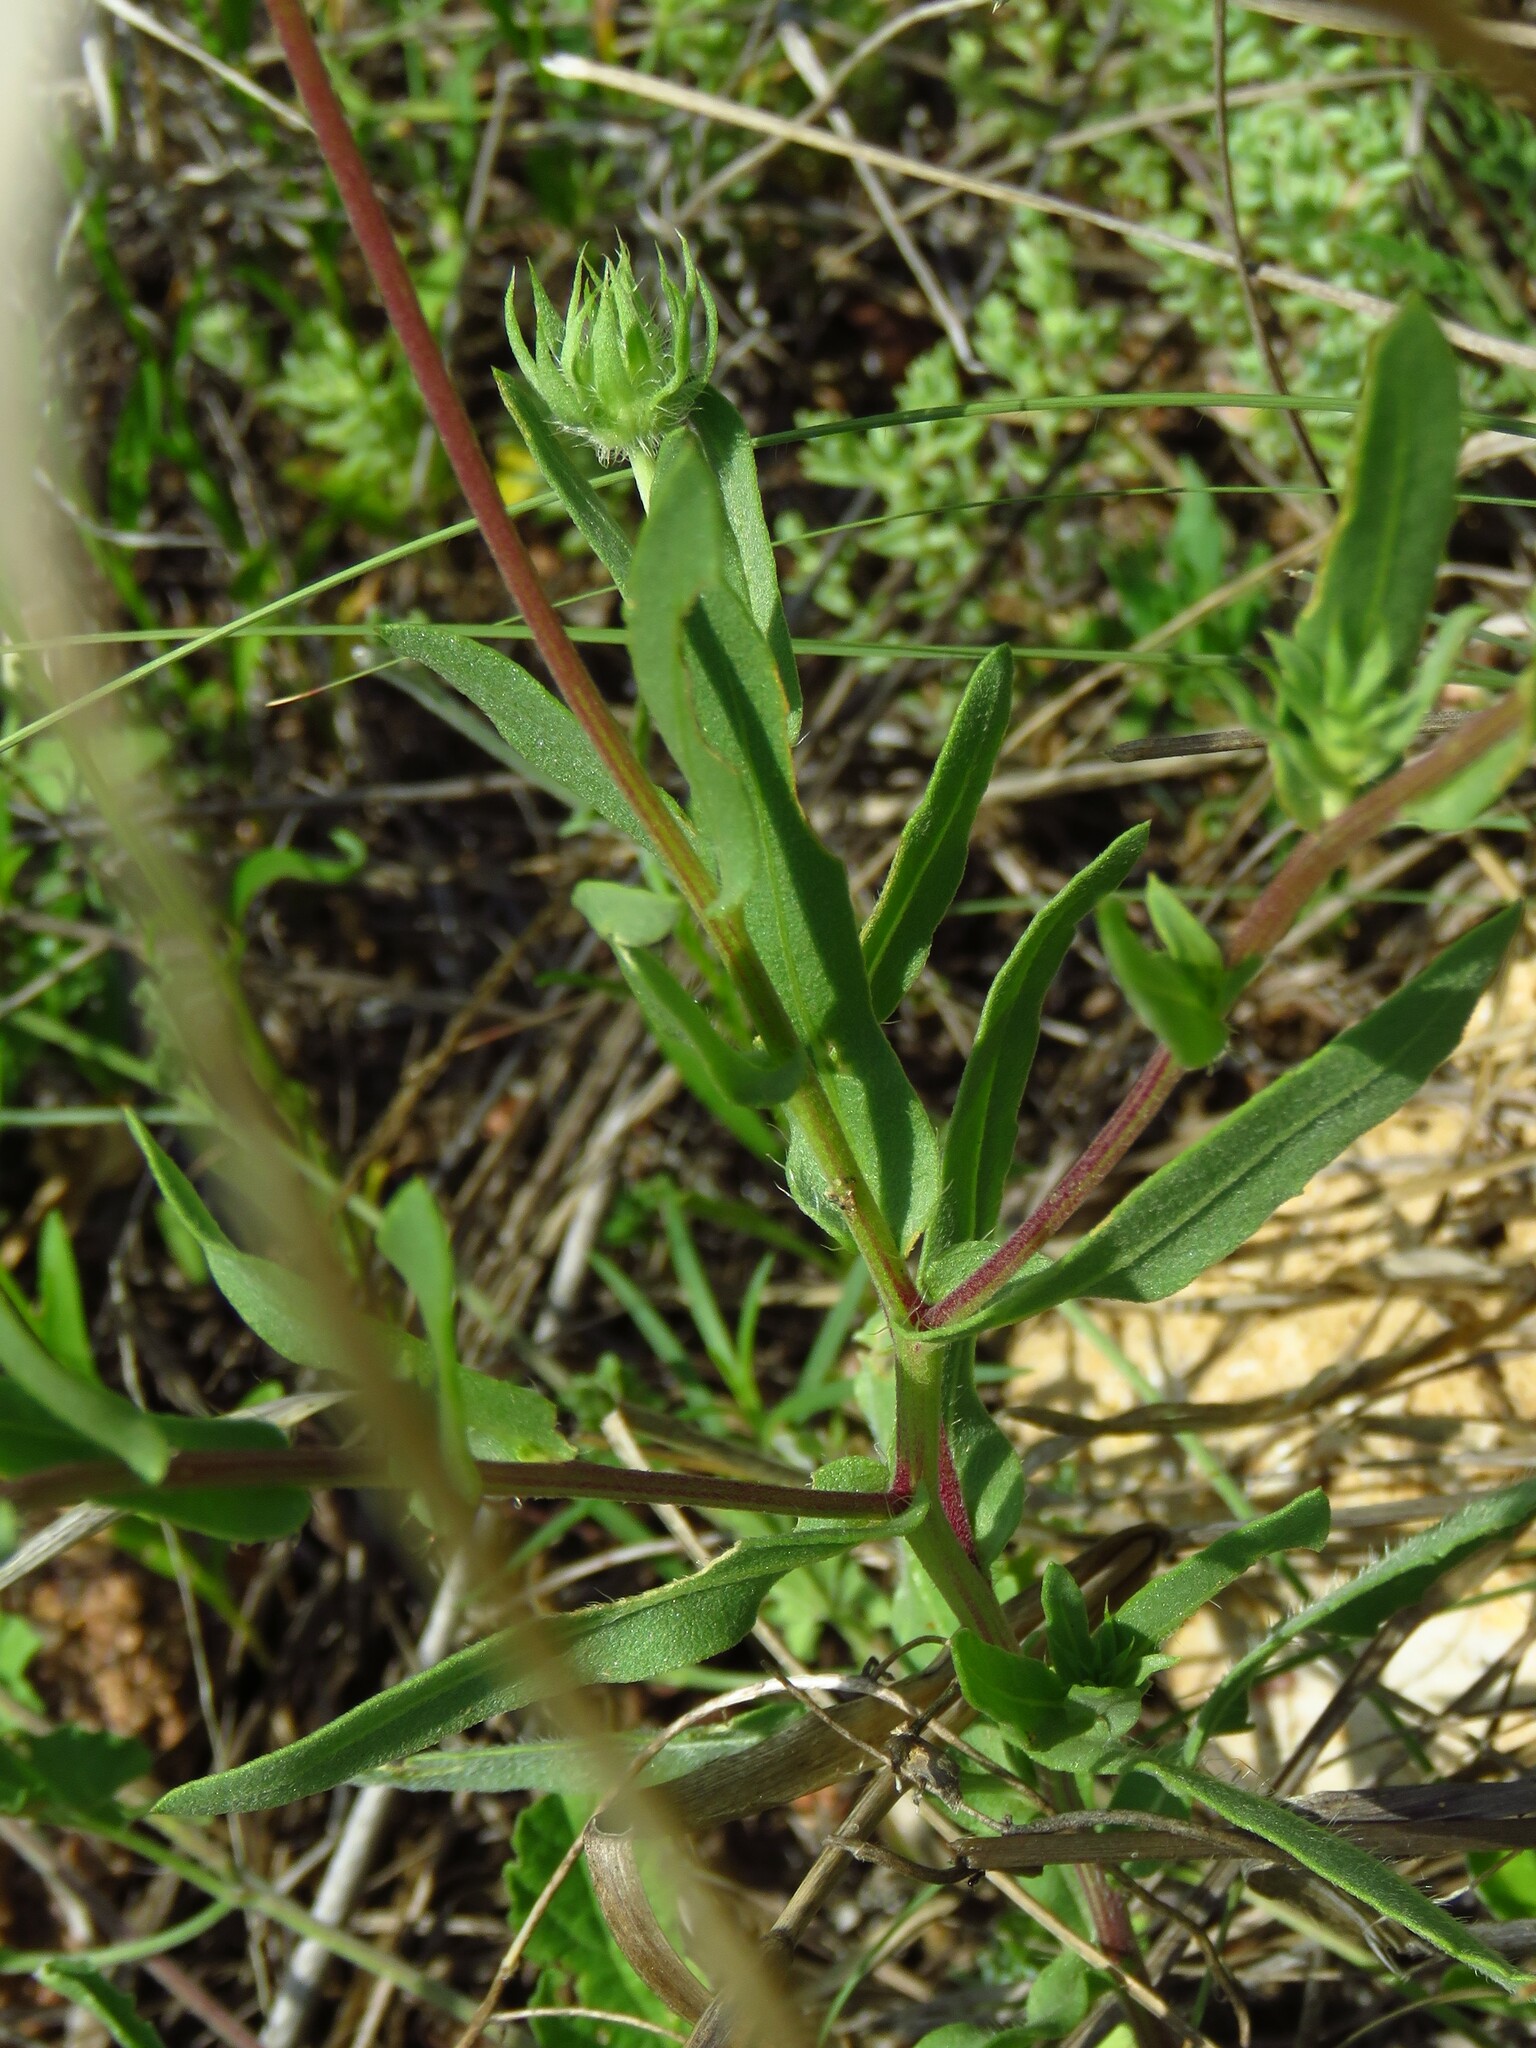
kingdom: Plantae
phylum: Tracheophyta
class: Magnoliopsida
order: Asterales
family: Asteraceae
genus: Gaillardia
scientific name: Gaillardia pulchella
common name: Firewheel
